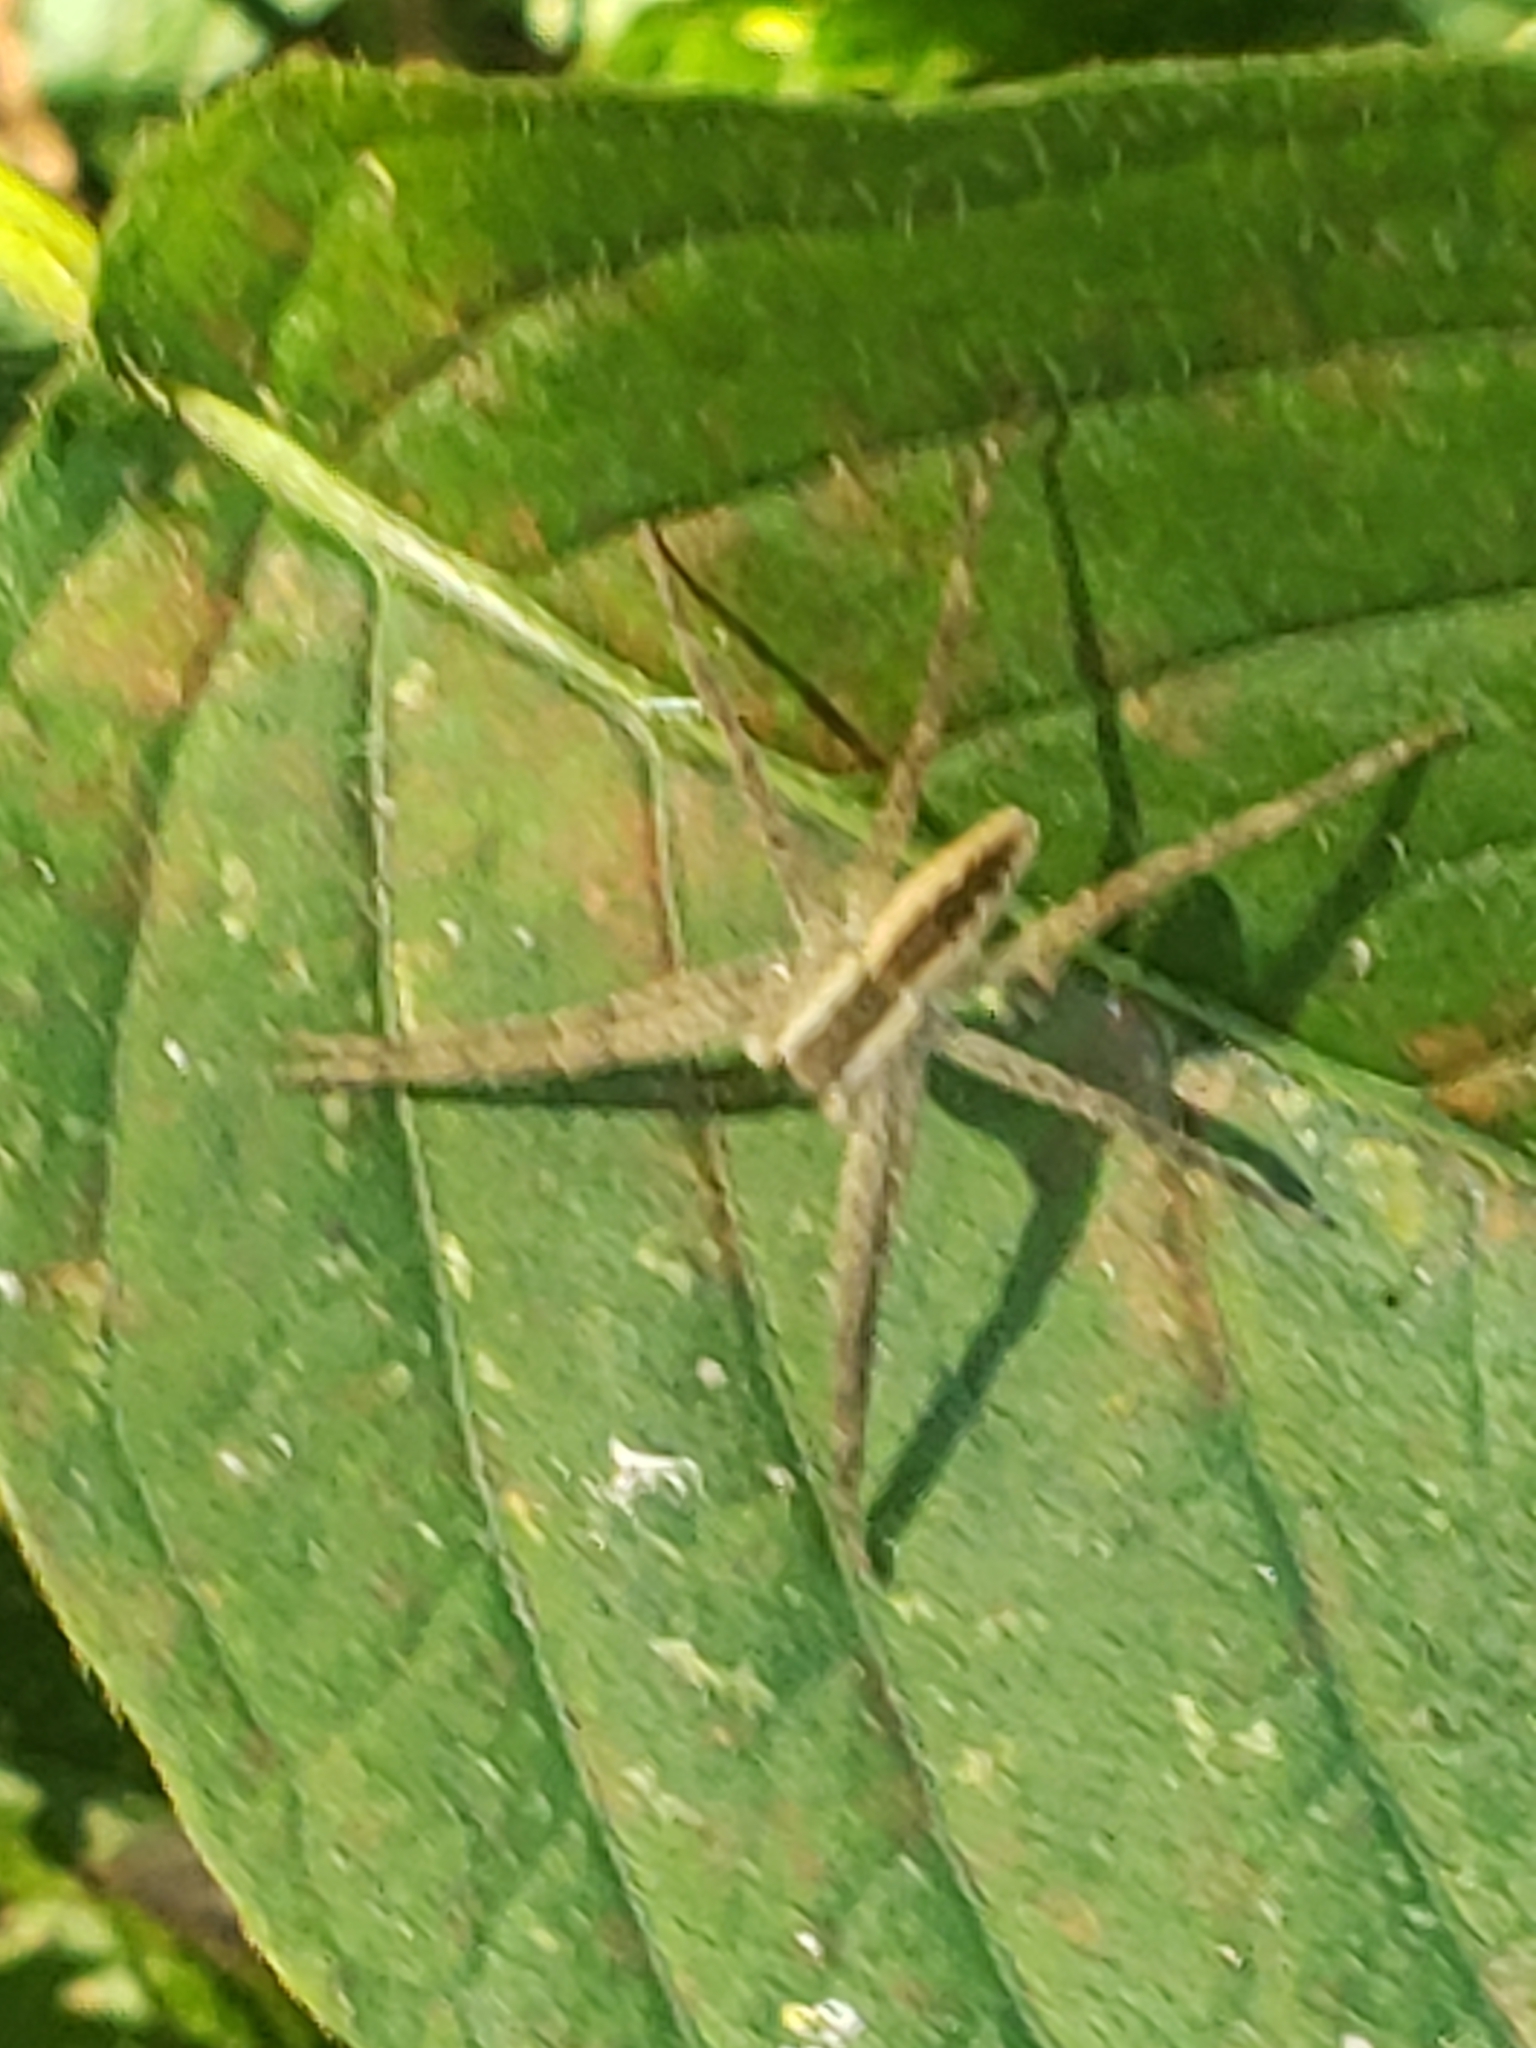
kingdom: Animalia
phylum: Arthropoda
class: Arachnida
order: Araneae
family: Pisauridae
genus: Pisaurina
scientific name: Pisaurina mira
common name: American nursery web spider
